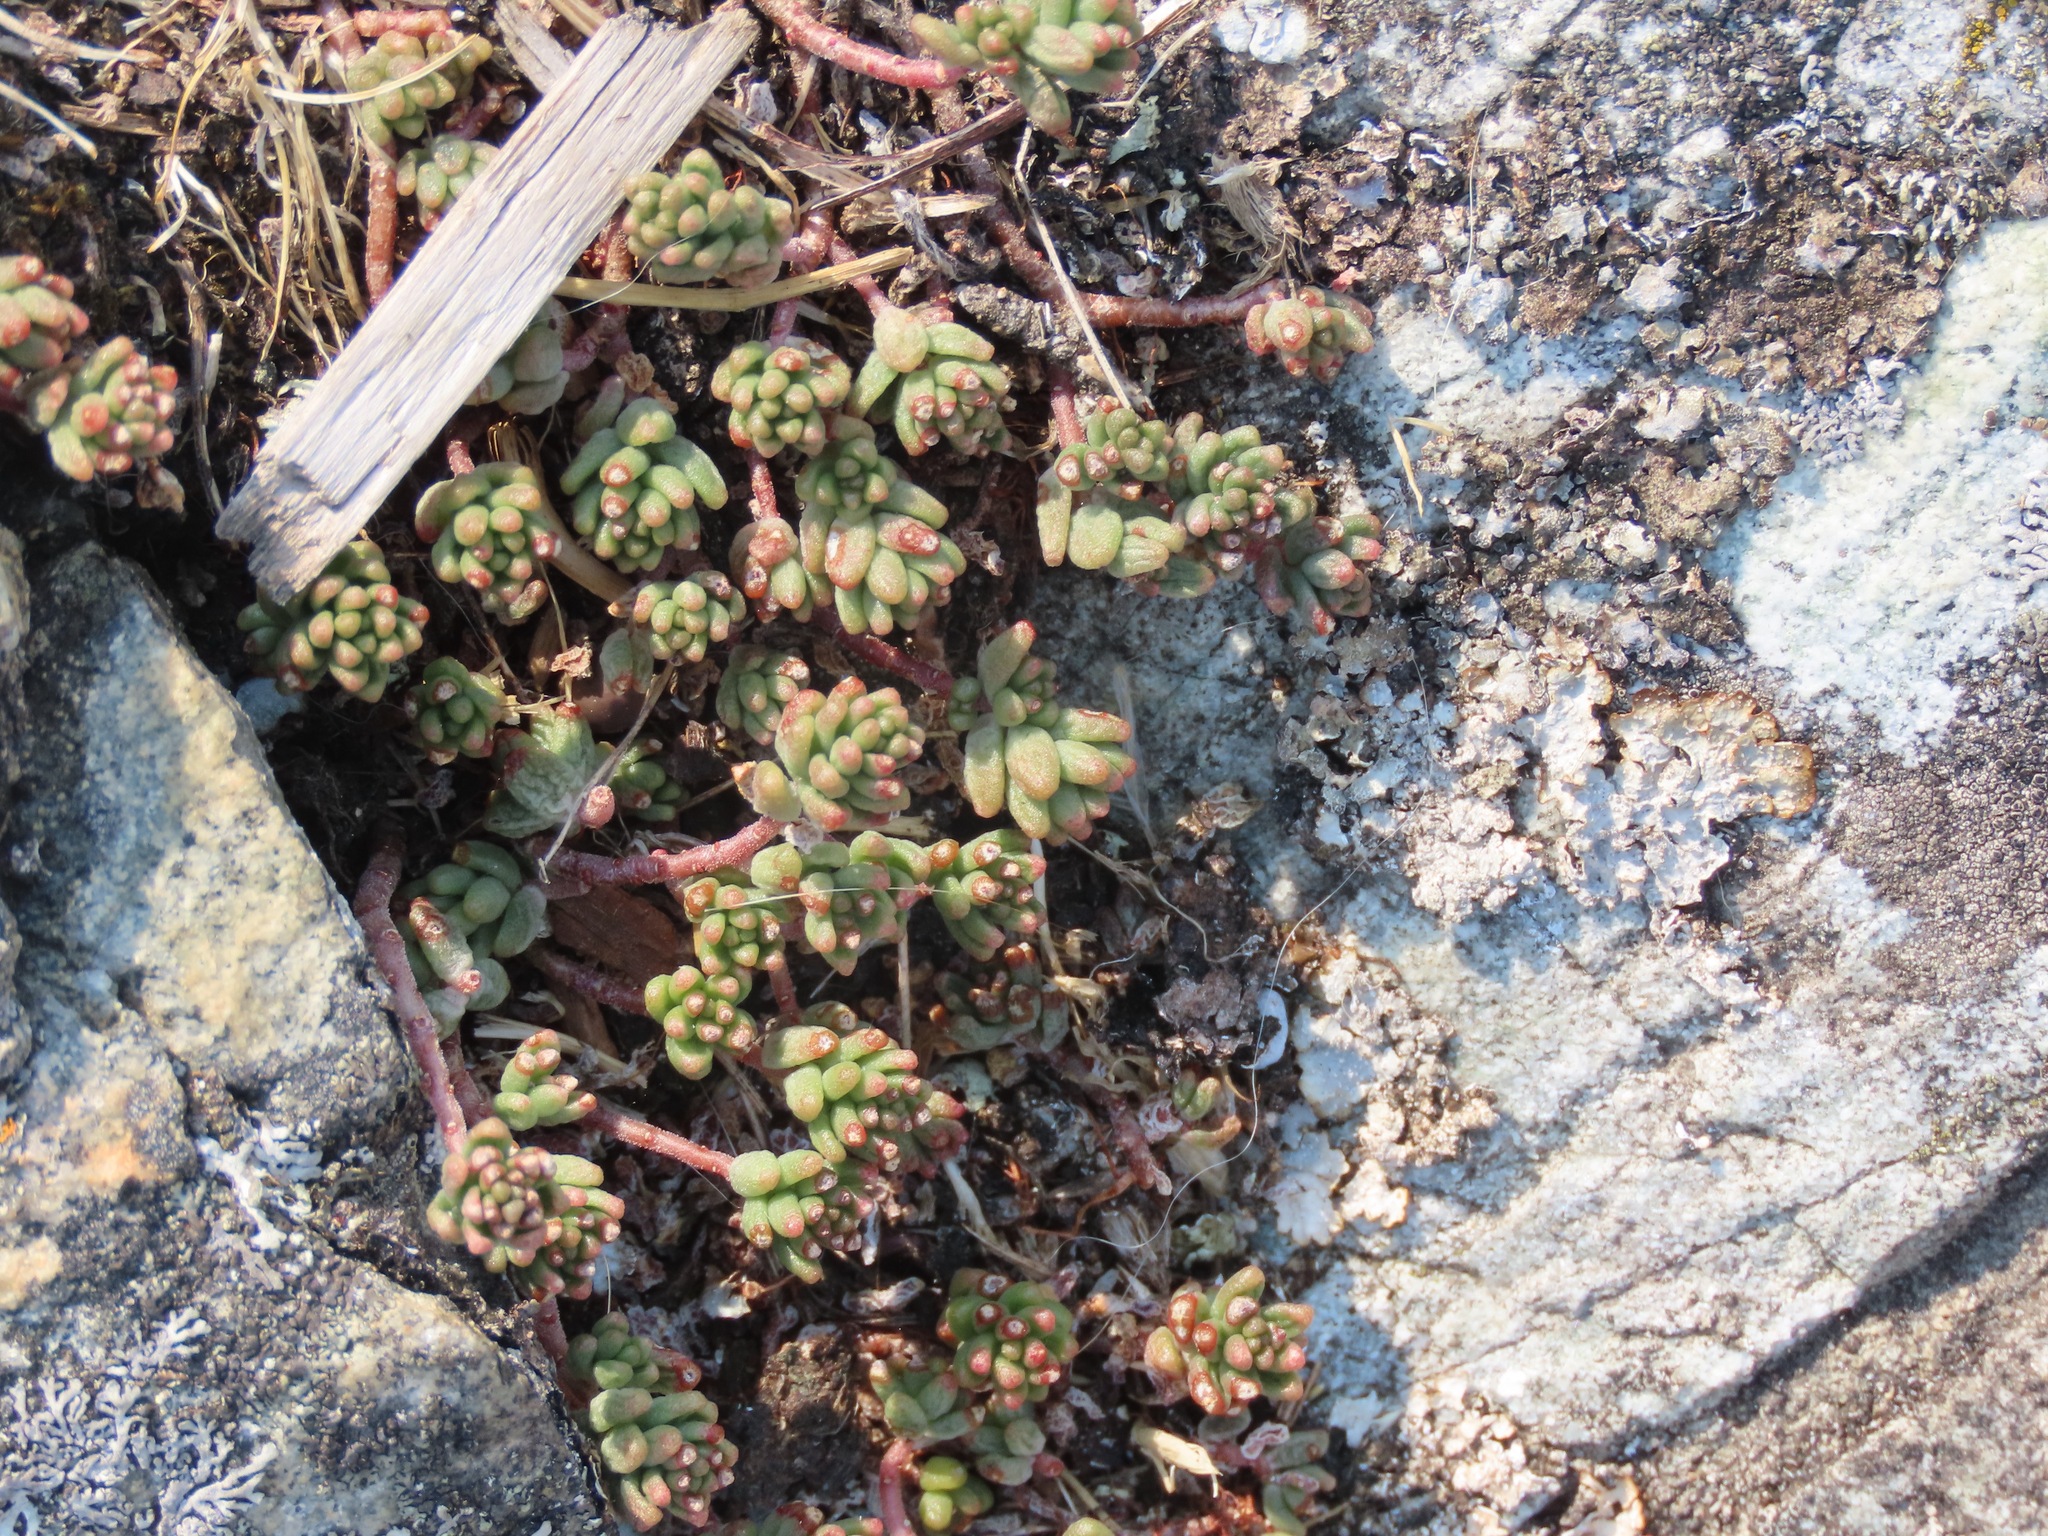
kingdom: Plantae
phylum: Tracheophyta
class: Magnoliopsida
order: Saxifragales
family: Crassulaceae
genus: Sedum
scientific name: Sedum album
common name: White stonecrop
